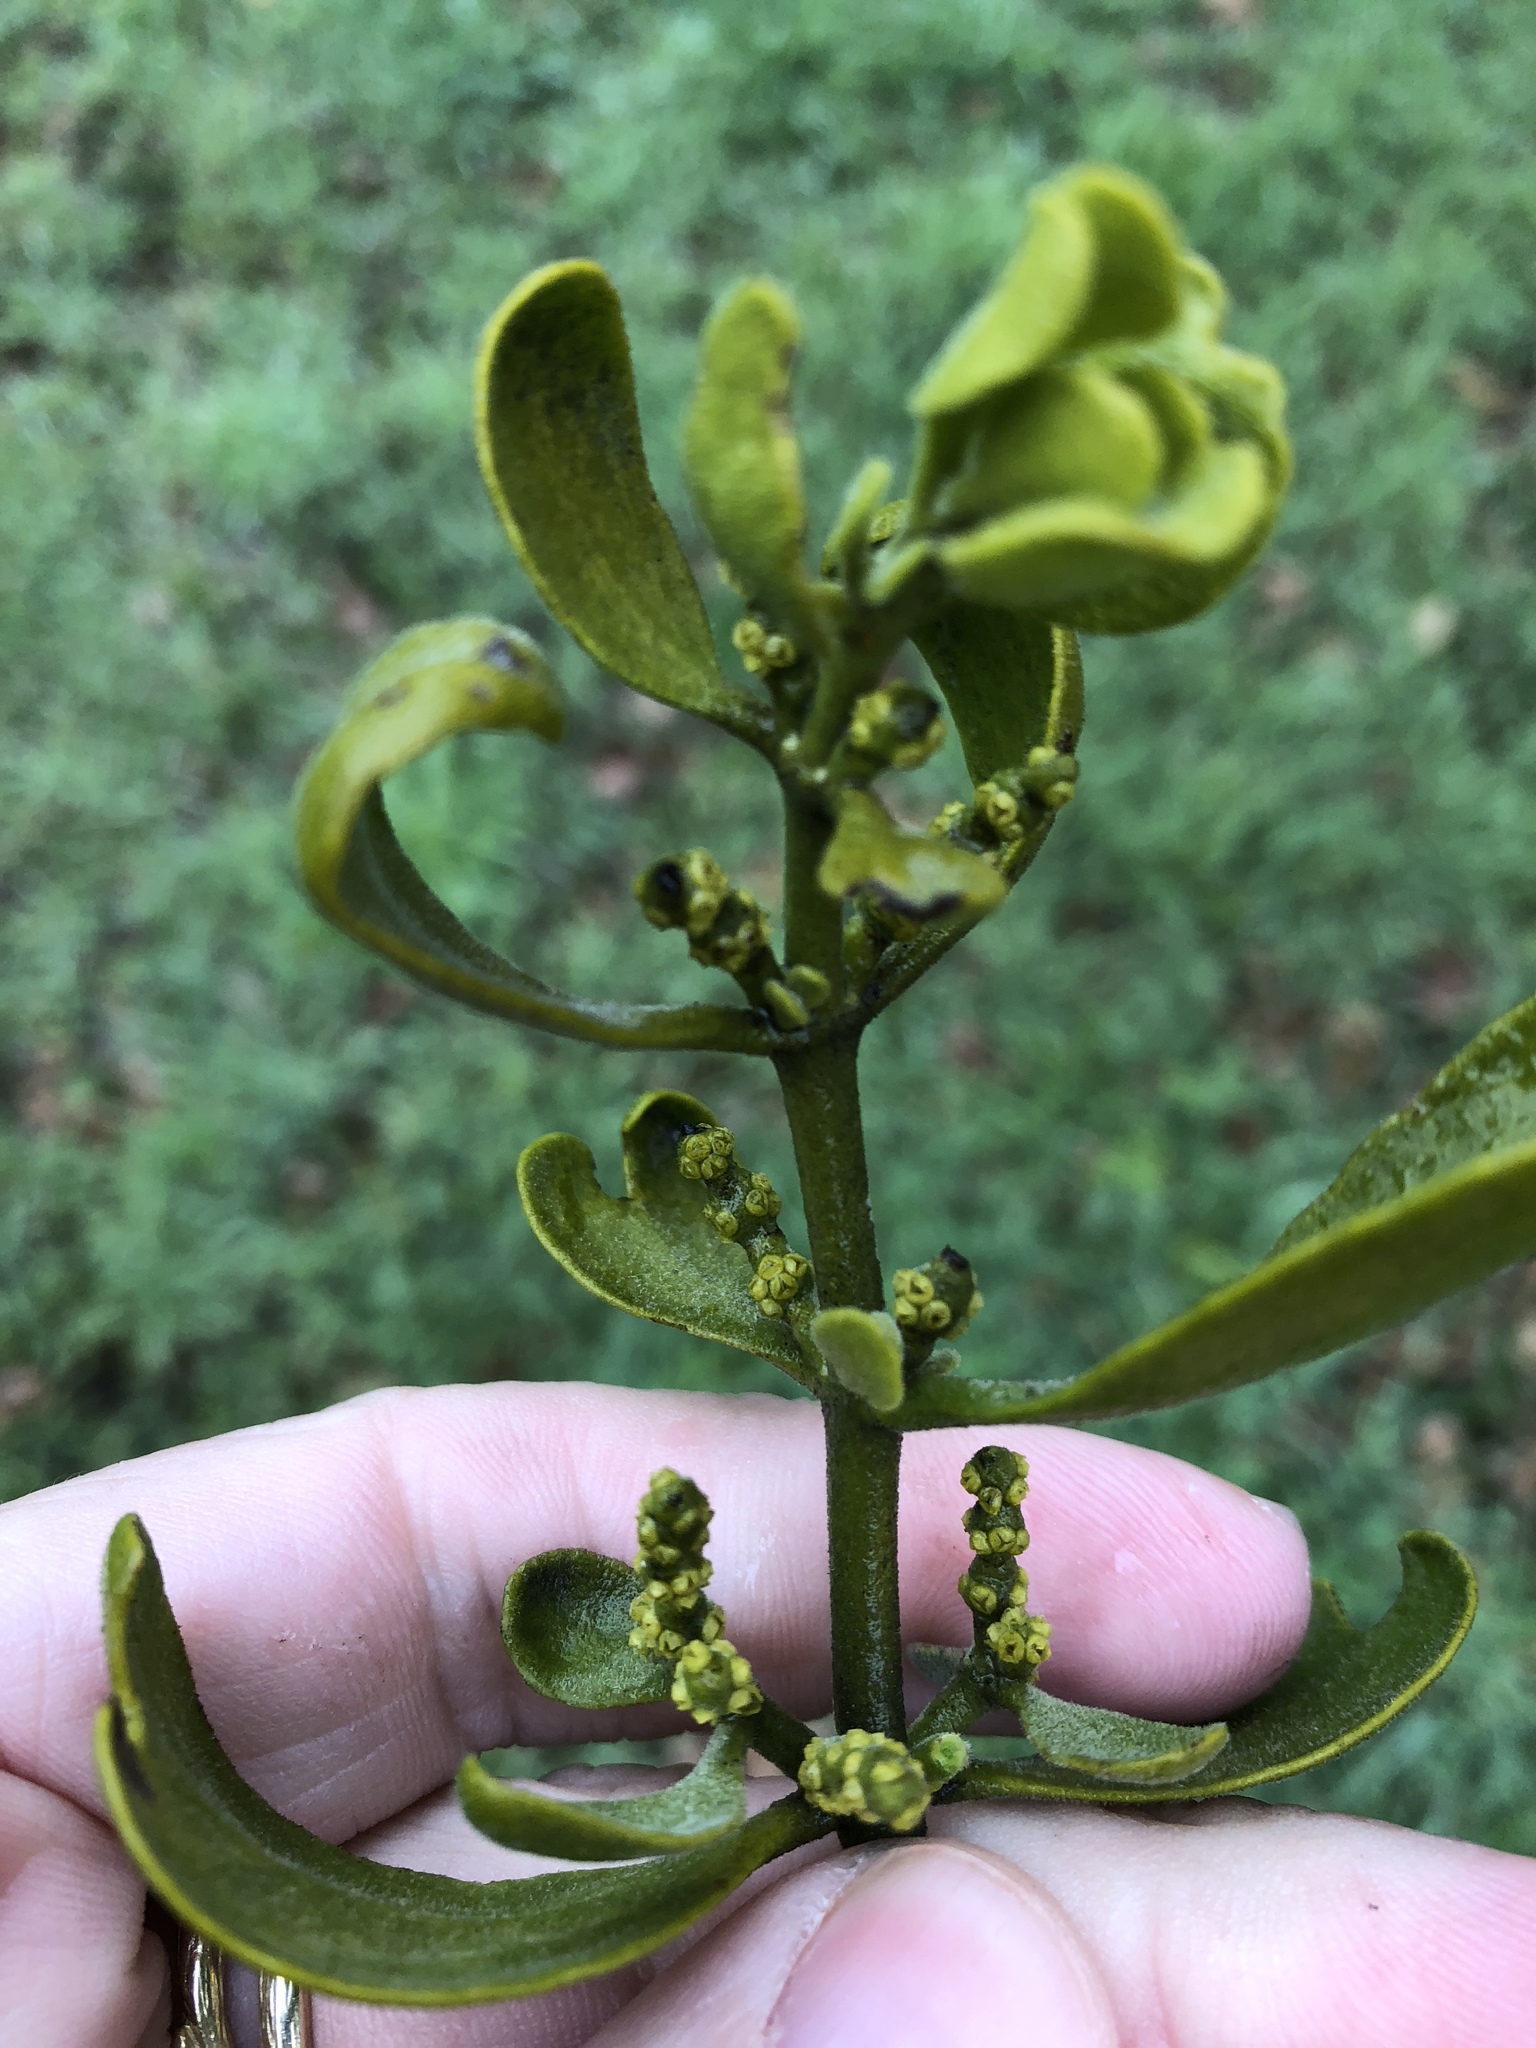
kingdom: Plantae
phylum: Tracheophyta
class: Magnoliopsida
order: Santalales
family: Viscaceae
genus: Phoradendron
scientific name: Phoradendron leucarpum
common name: Pacific mistletoe
